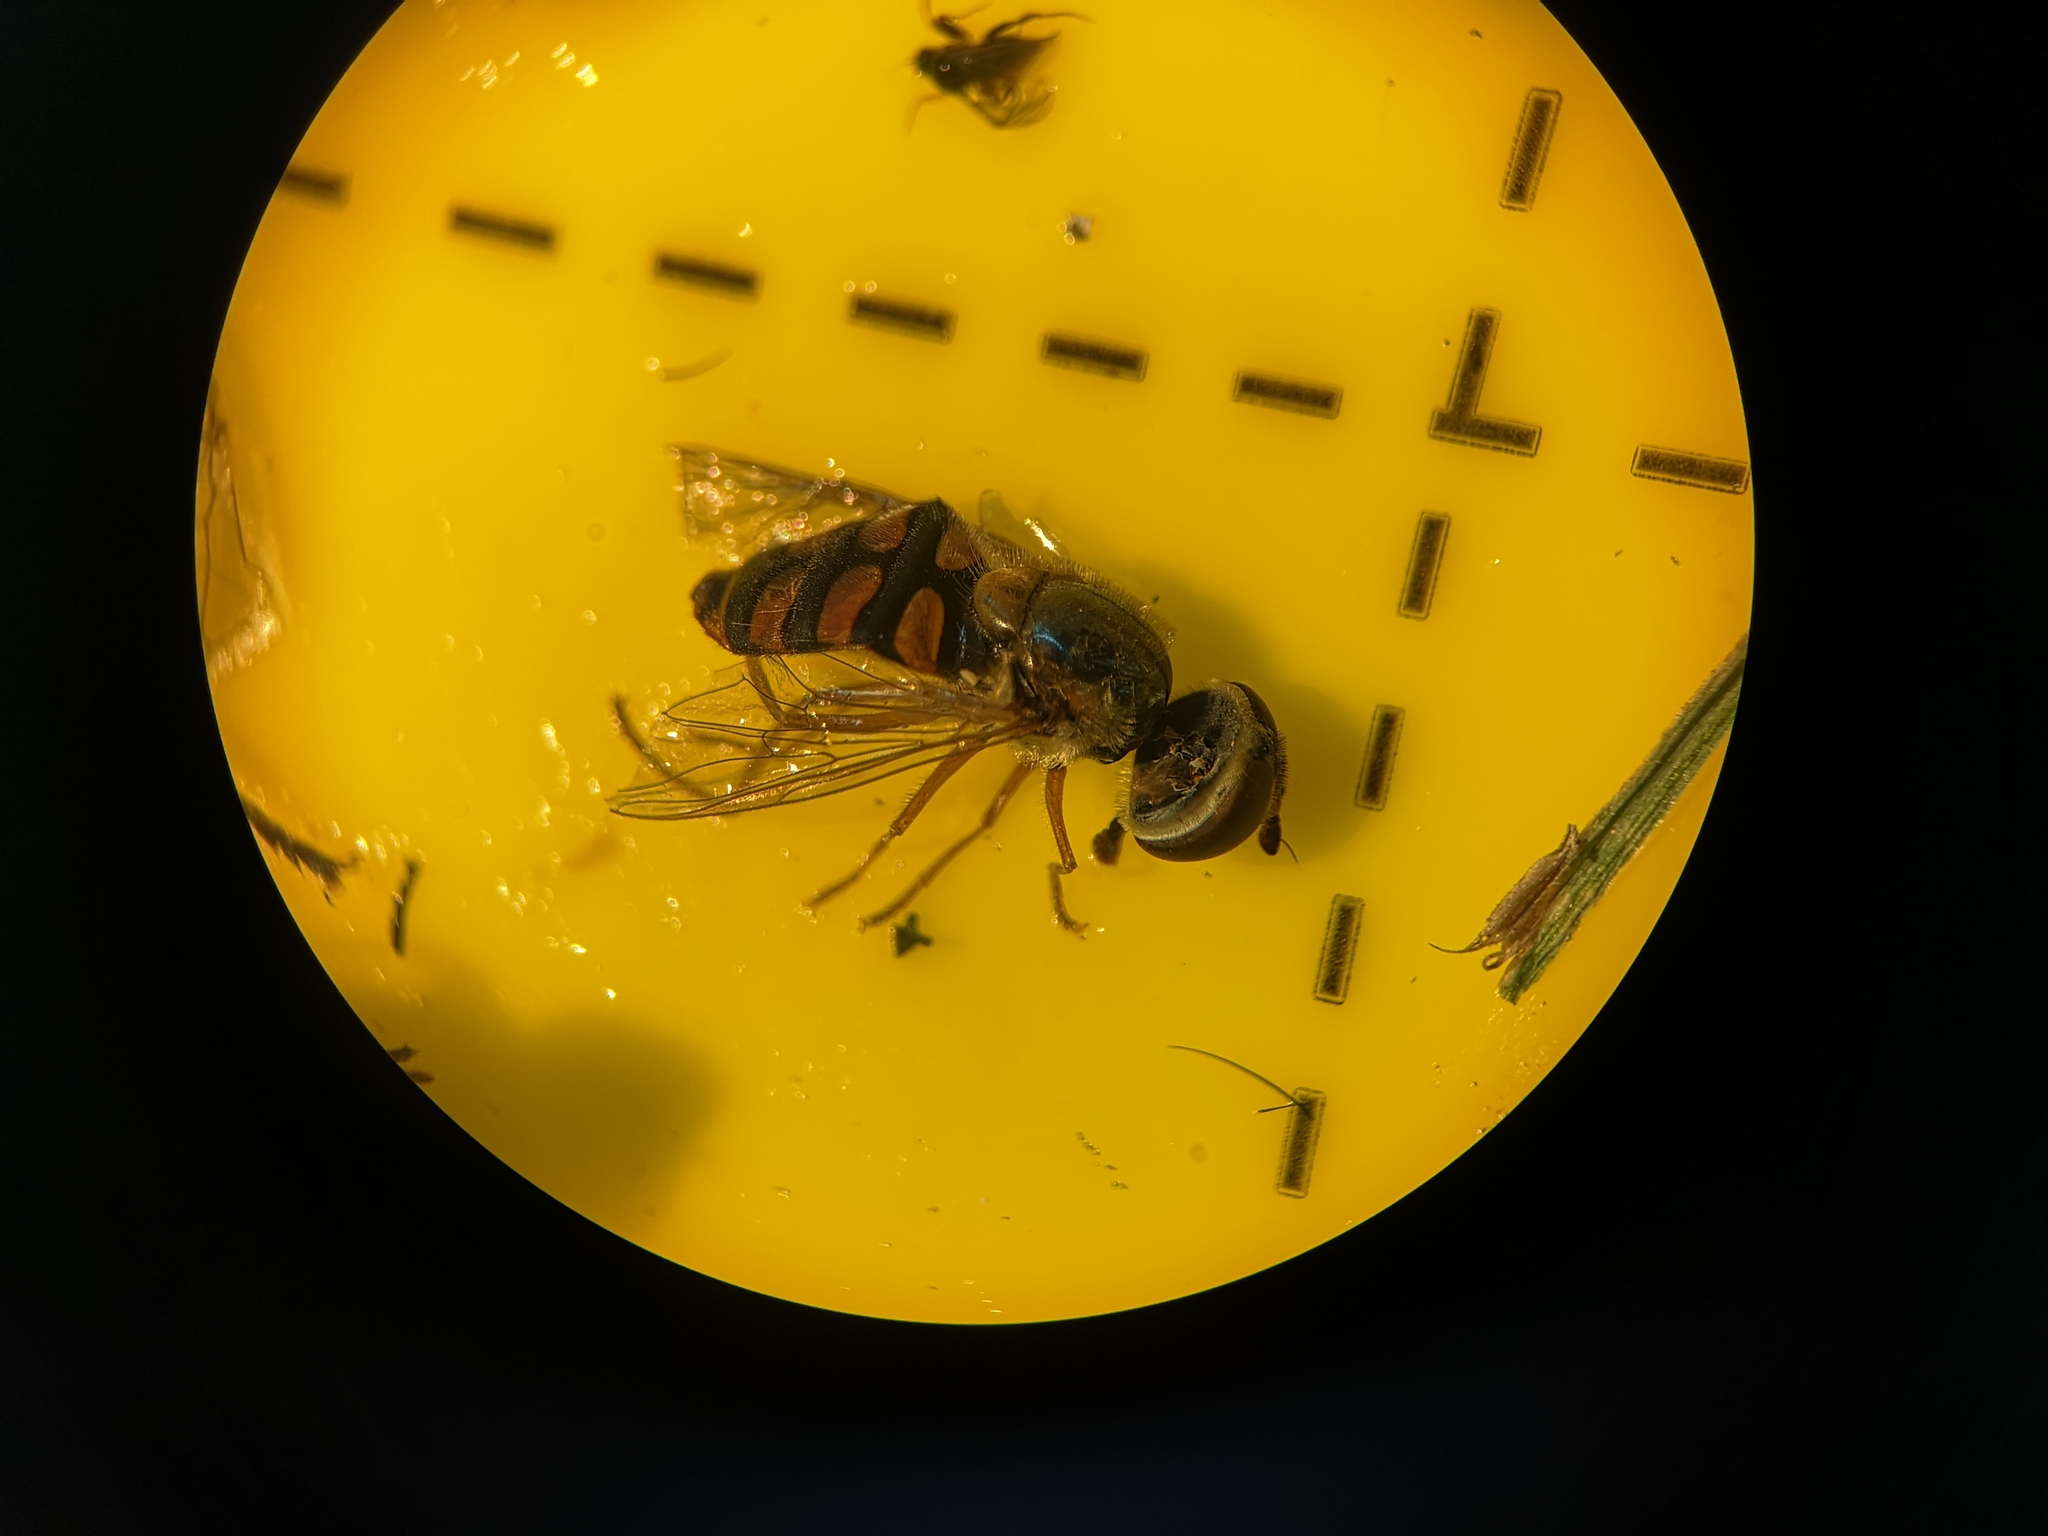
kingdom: Animalia
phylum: Arthropoda
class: Insecta
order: Diptera
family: Syrphidae
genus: Eupeodes
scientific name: Eupeodes corollae
